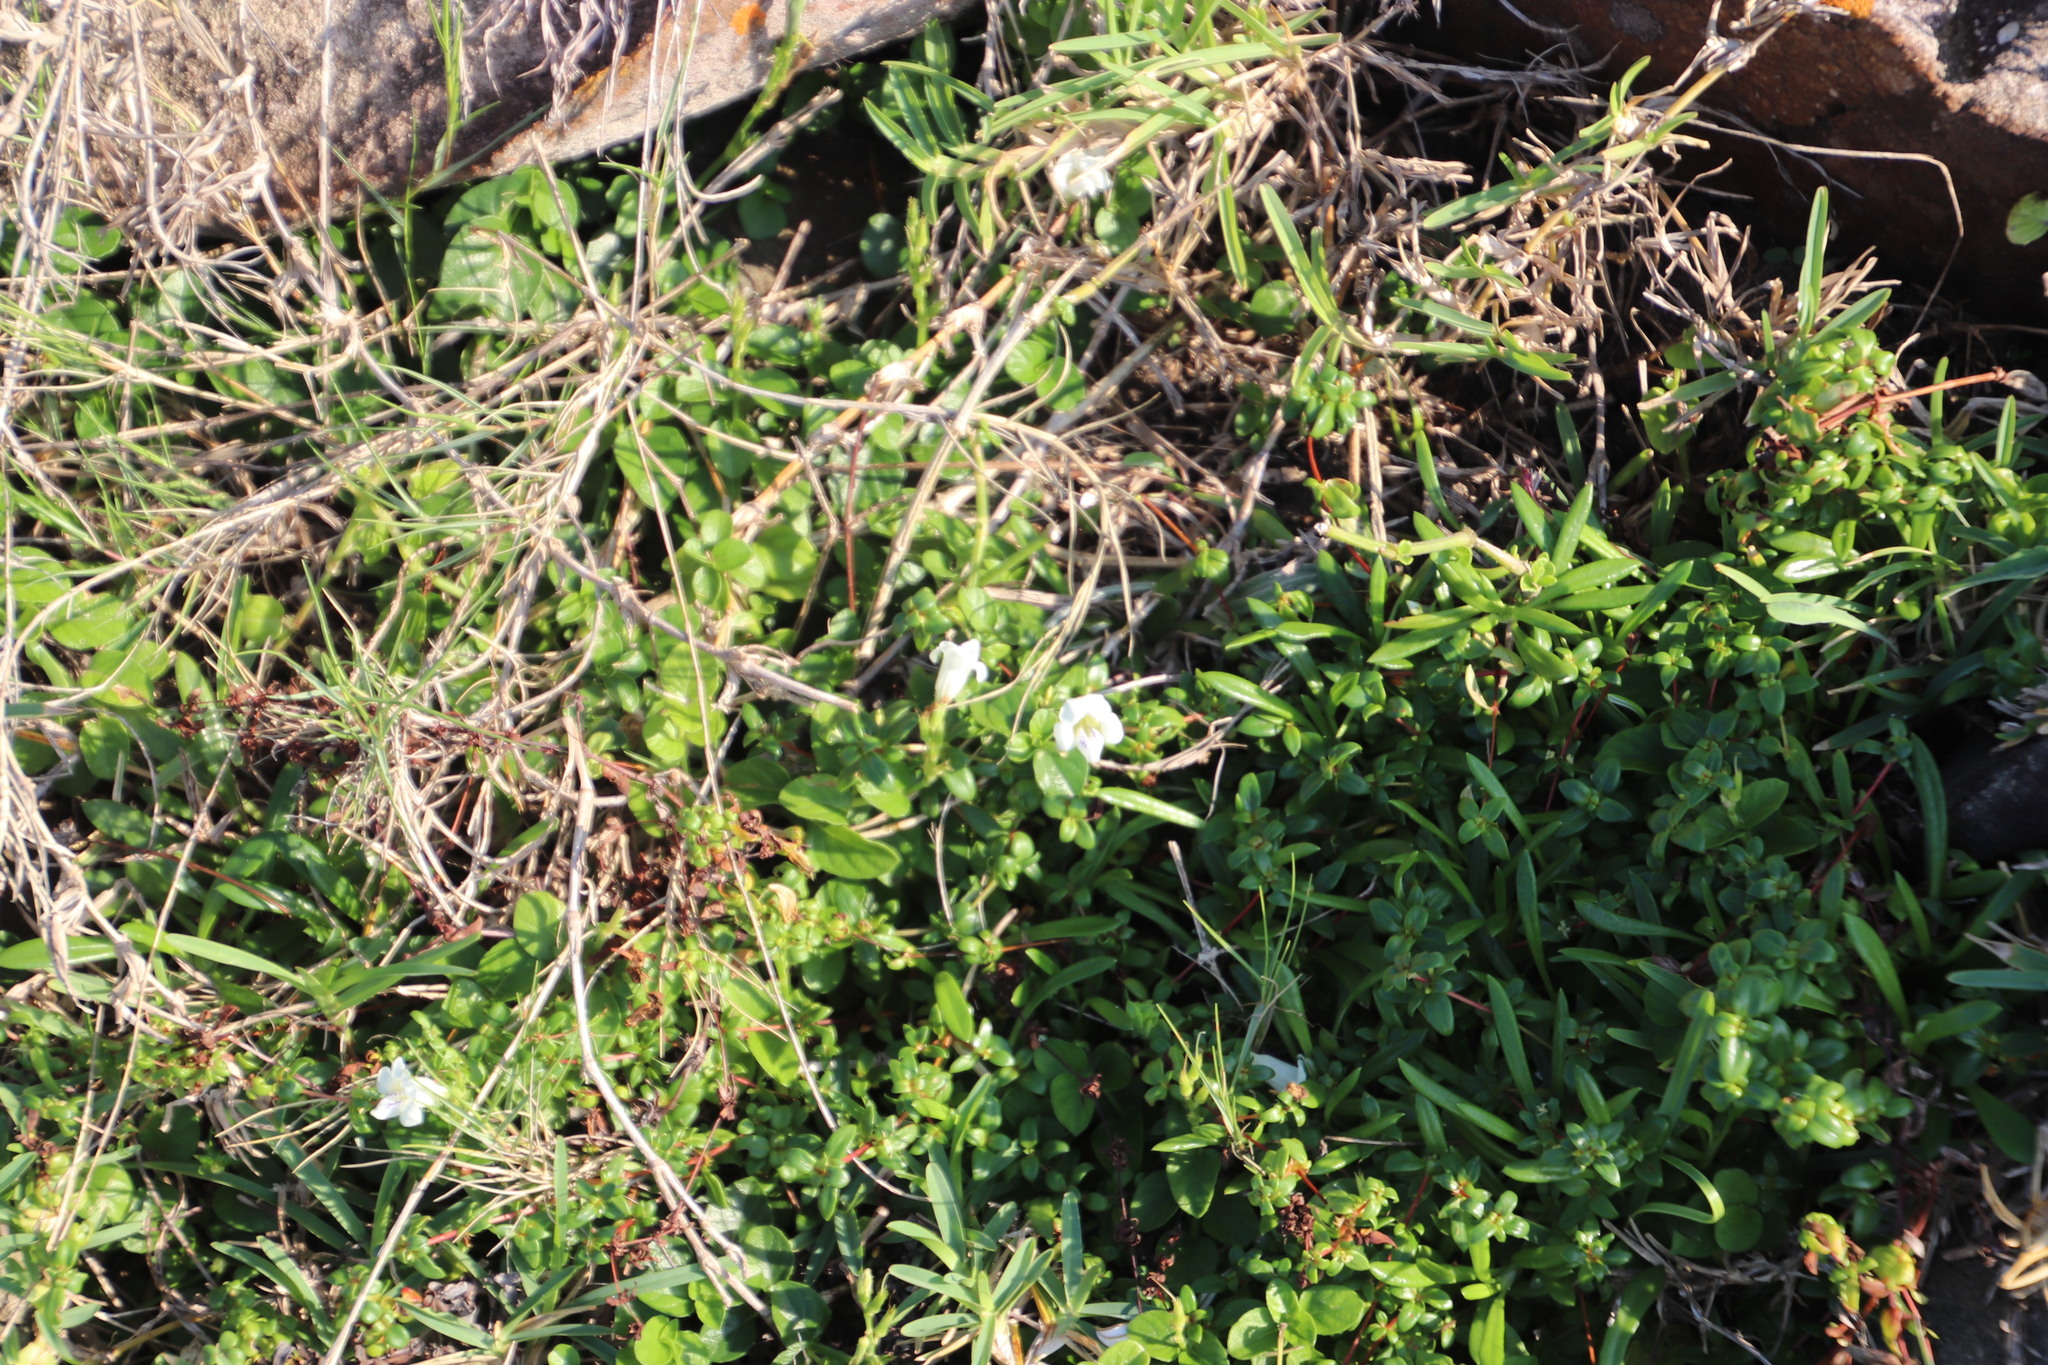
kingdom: Plantae
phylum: Tracheophyta
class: Magnoliopsida
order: Lamiales
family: Acanthaceae
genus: Asystasia
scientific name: Asystasia intrusa
